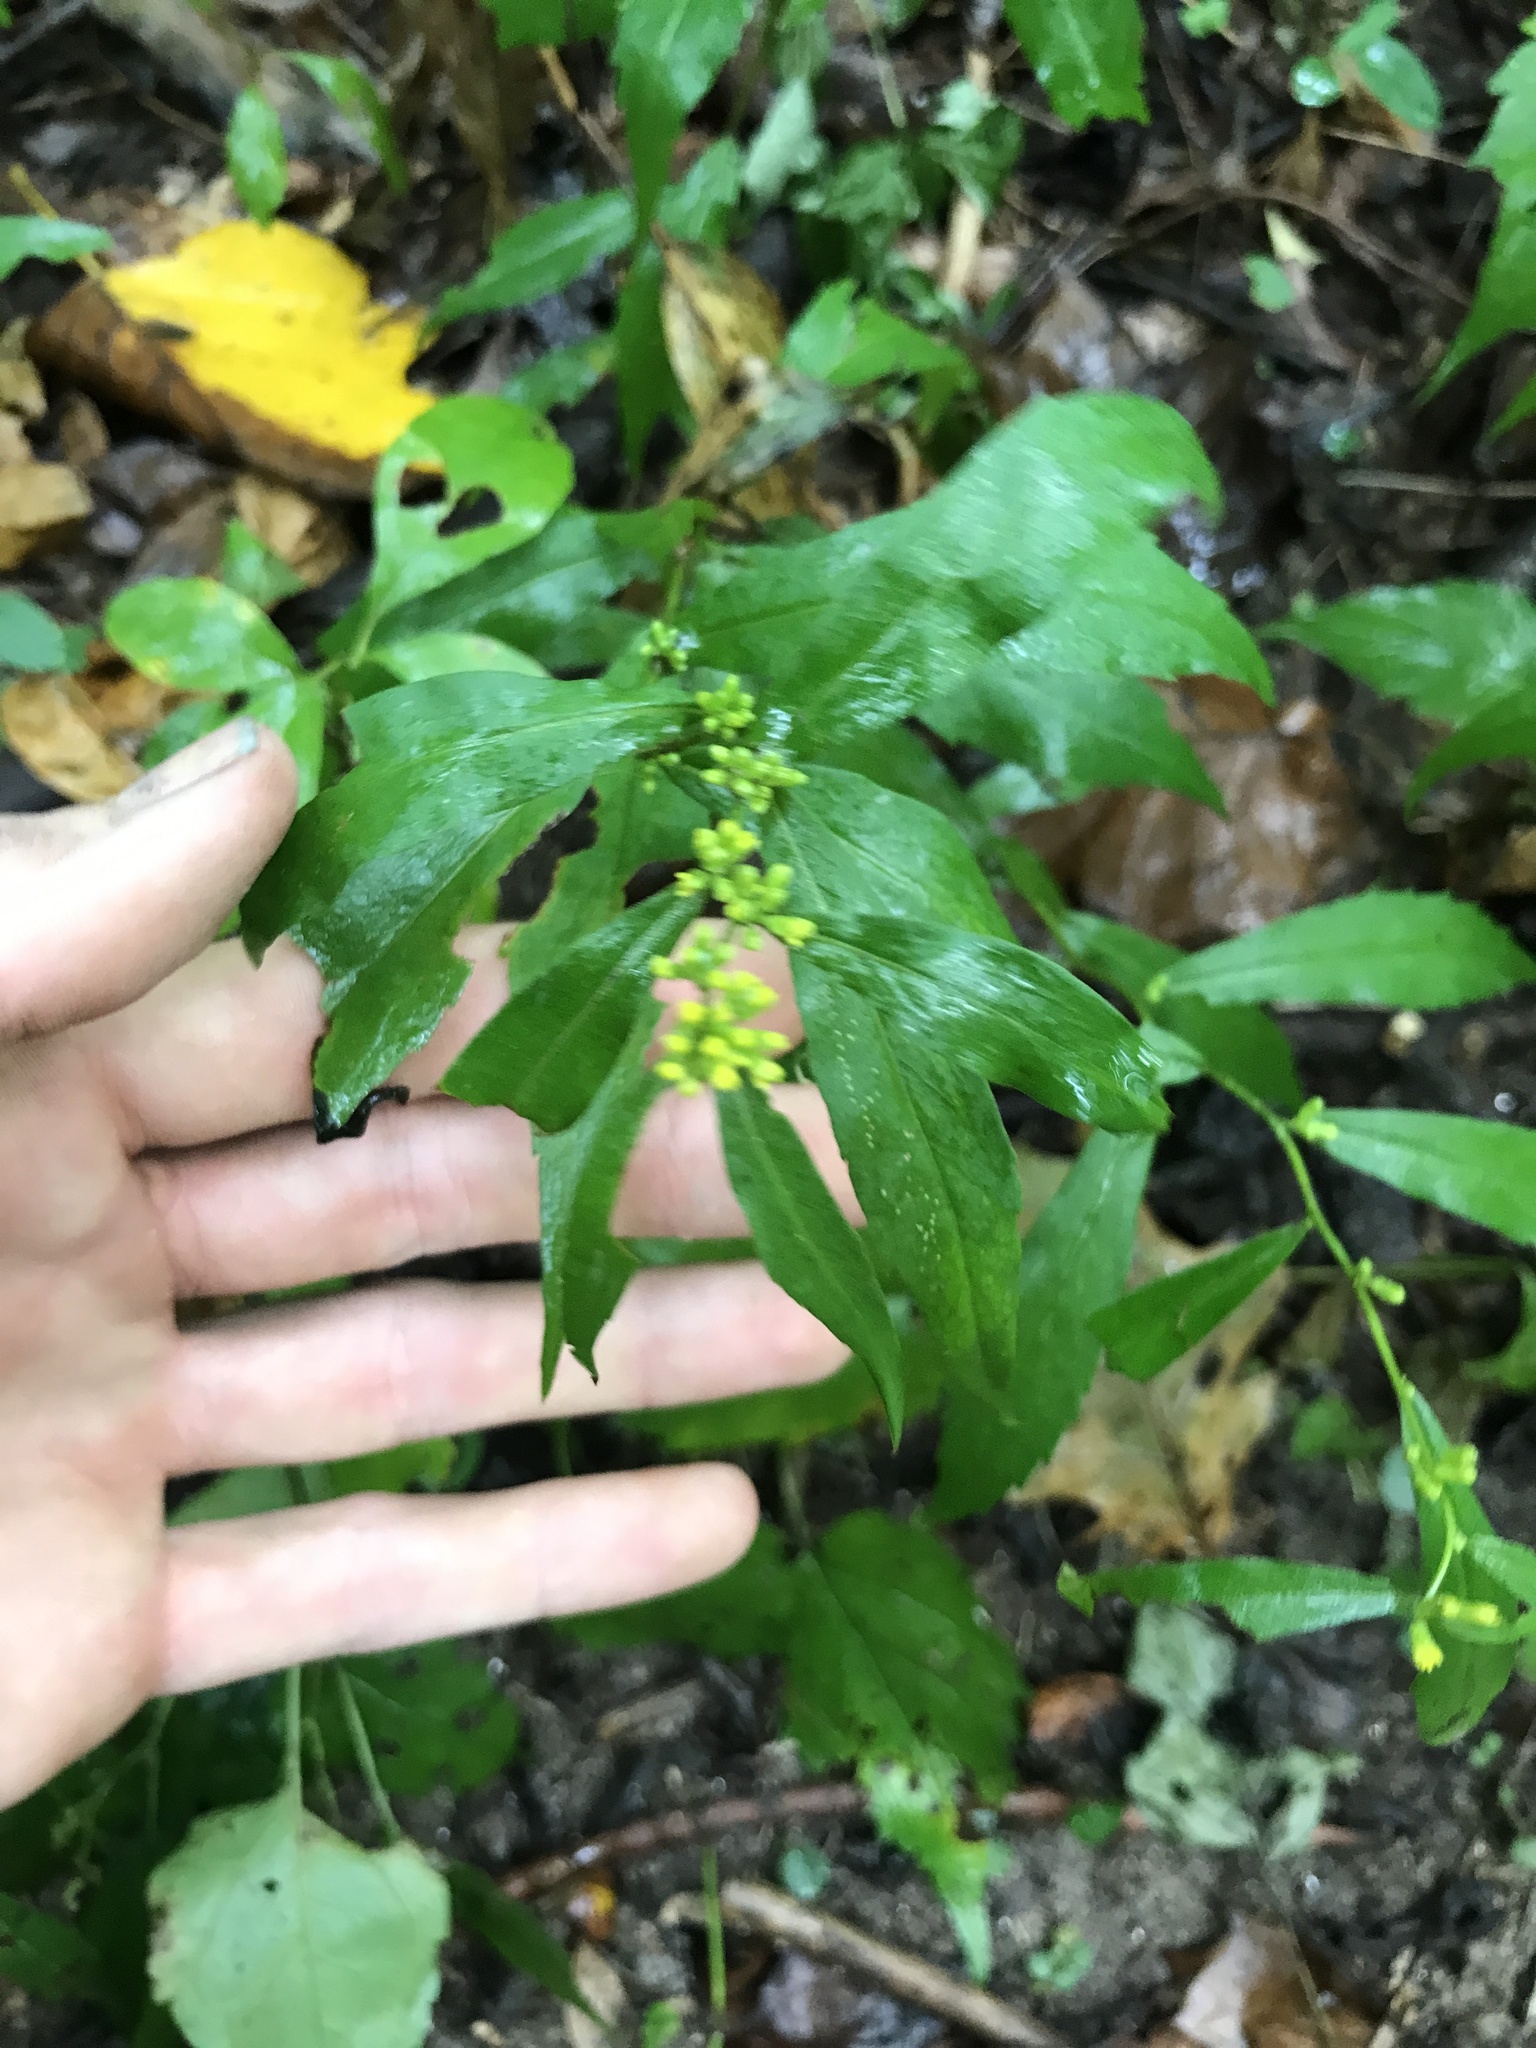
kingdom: Plantae
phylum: Tracheophyta
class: Magnoliopsida
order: Asterales
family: Asteraceae
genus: Solidago
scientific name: Solidago caesia
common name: Woodland goldenrod
